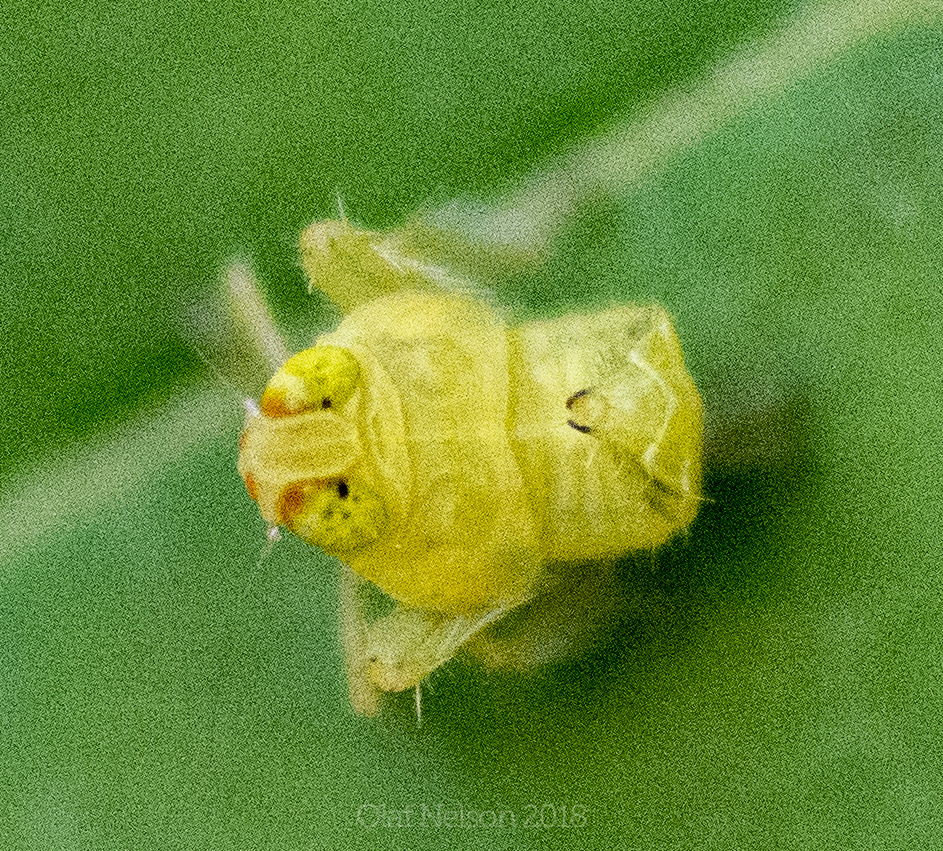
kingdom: Animalia
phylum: Arthropoda
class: Insecta
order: Hemiptera
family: Cicadellidae
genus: Jikradia
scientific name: Jikradia olitoria
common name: Coppery leafhopper
